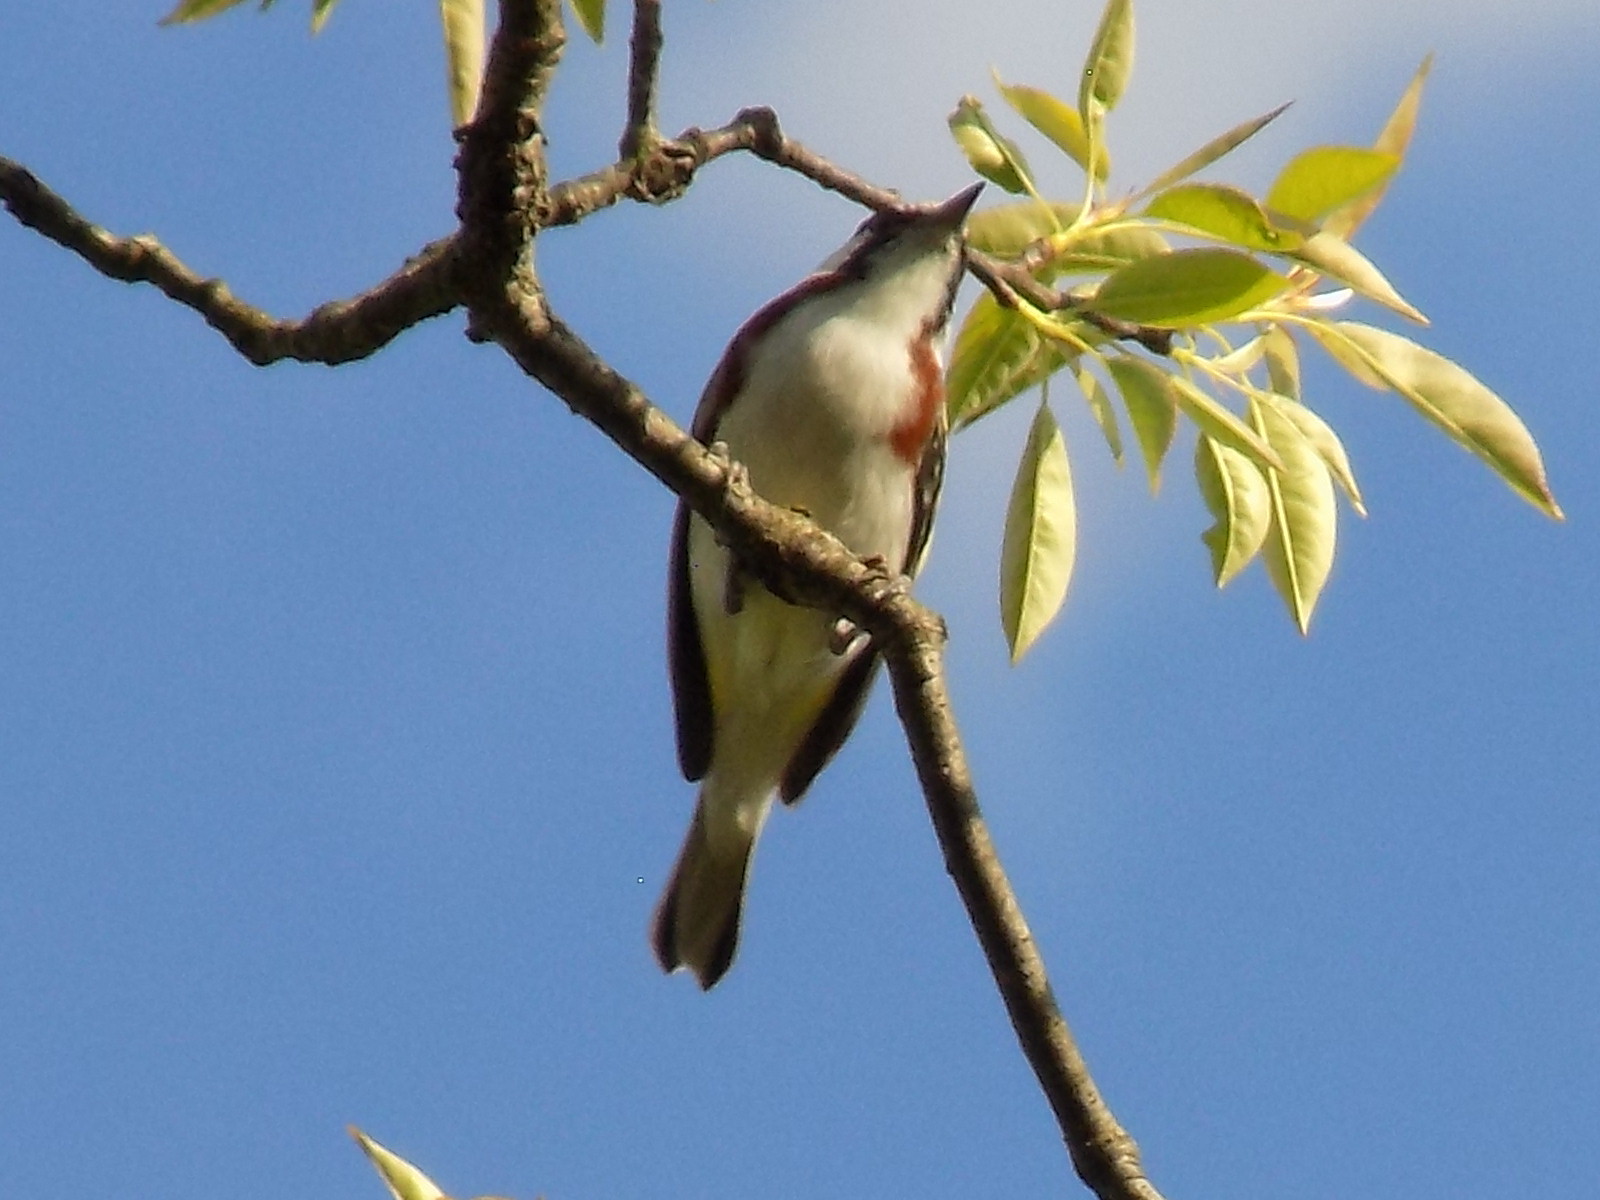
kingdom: Animalia
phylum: Chordata
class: Aves
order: Passeriformes
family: Parulidae
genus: Setophaga
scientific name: Setophaga pensylvanica
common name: Chestnut-sided warbler
